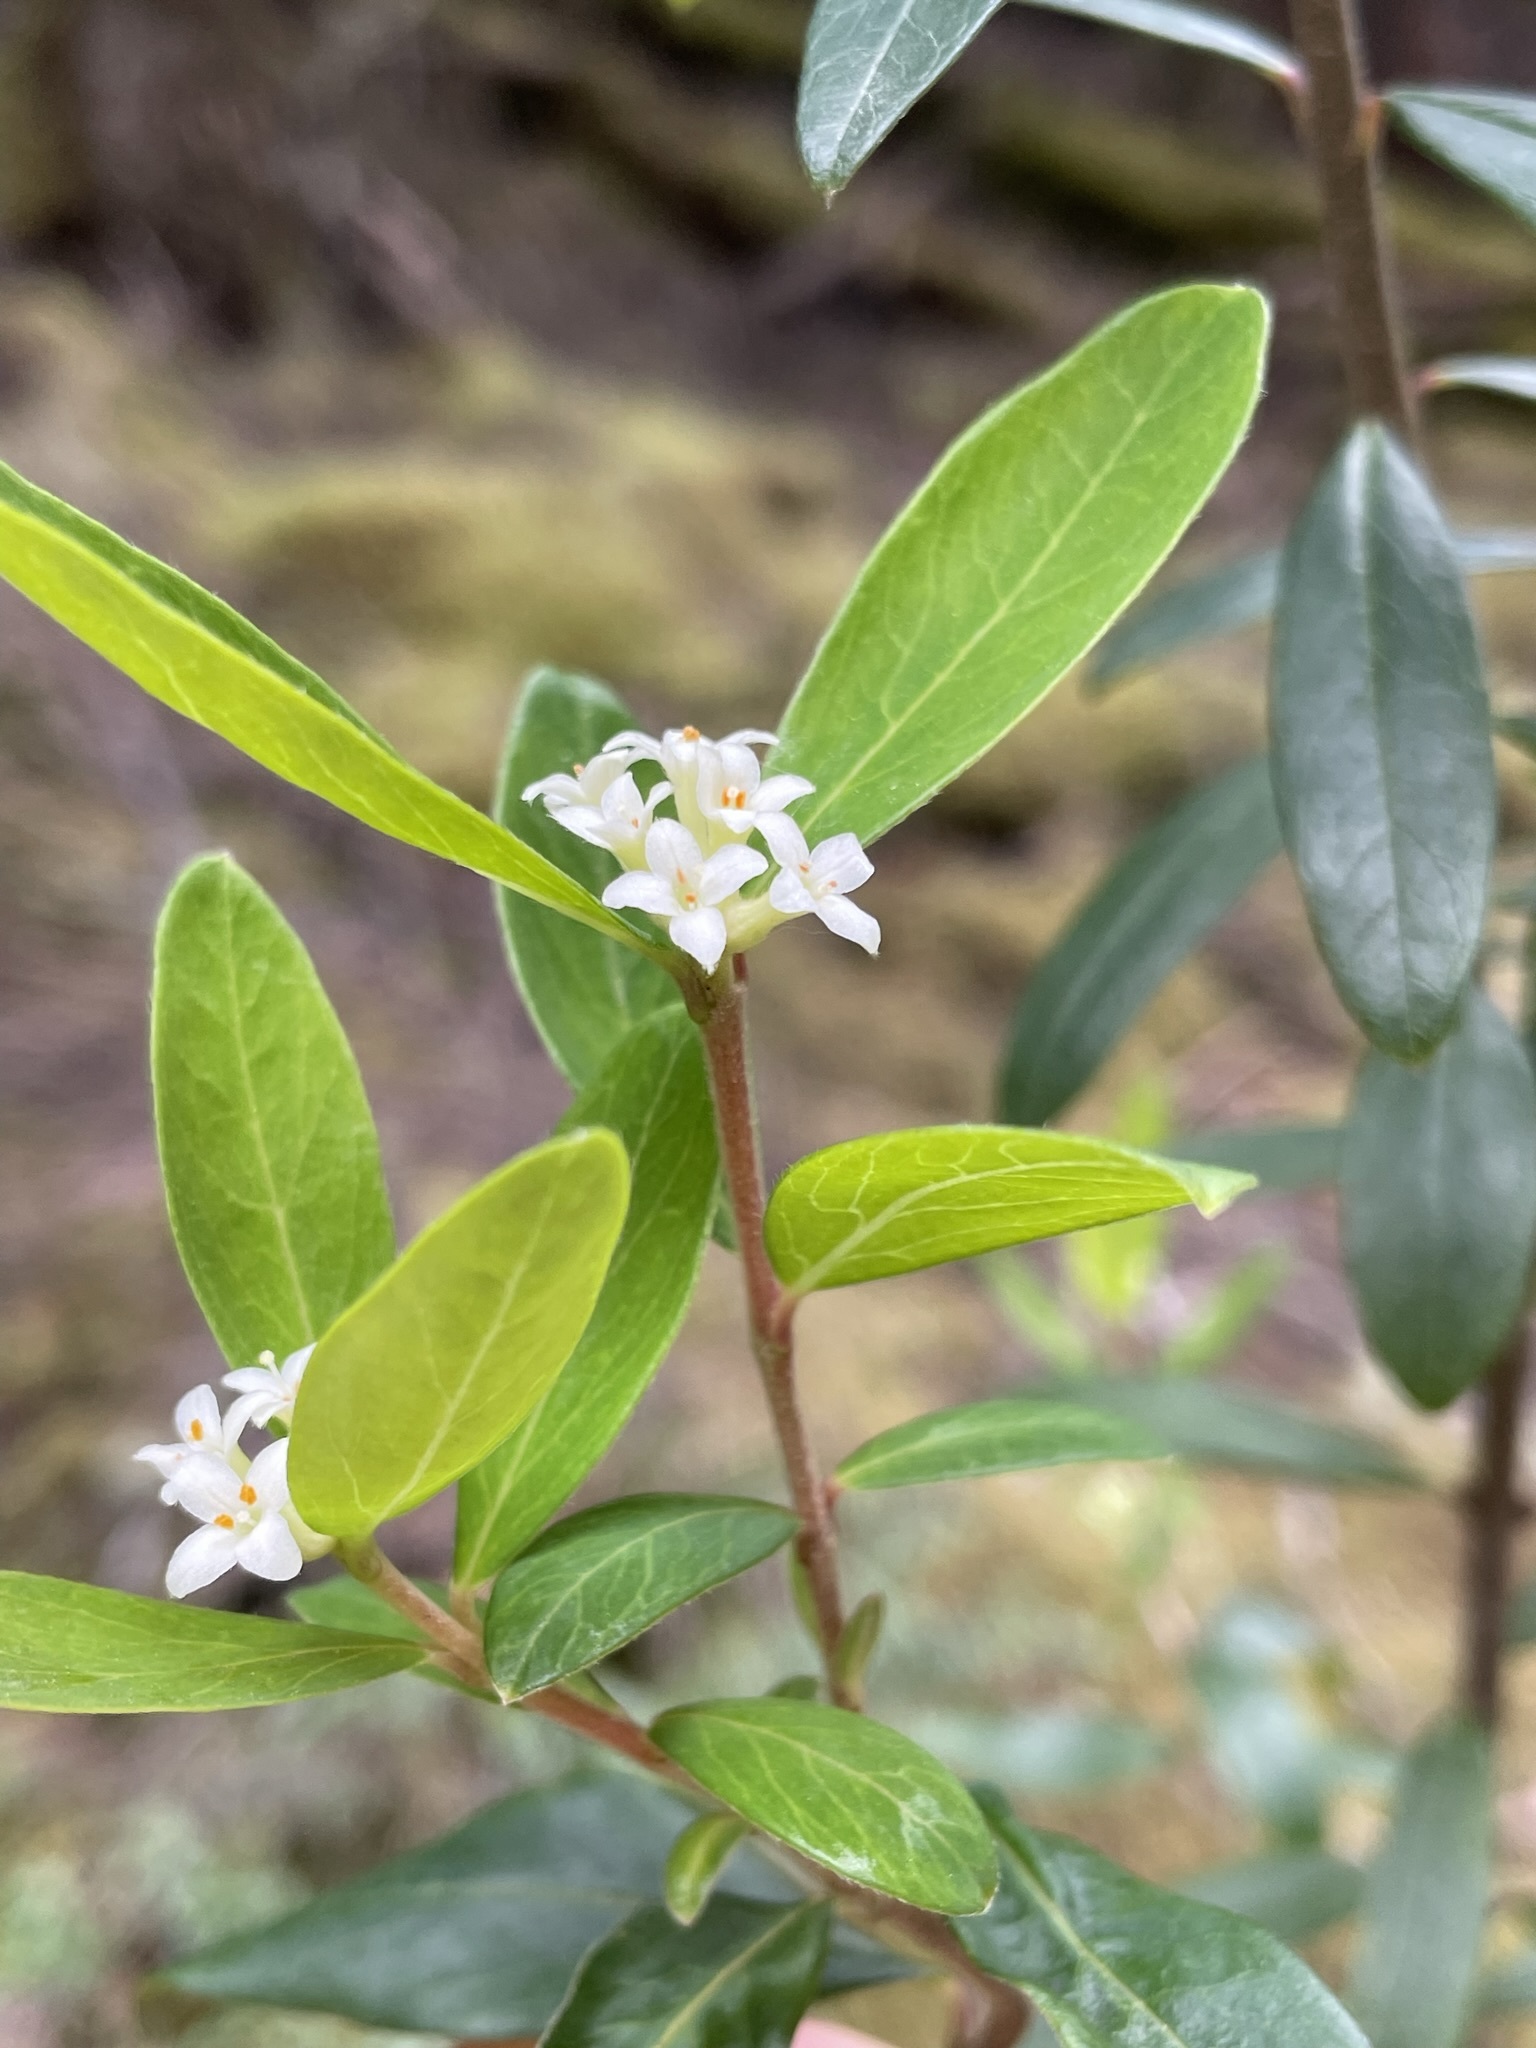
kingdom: Plantae
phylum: Tracheophyta
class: Magnoliopsida
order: Malvales
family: Thymelaeaceae
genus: Pimelea
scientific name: Pimelea drupacea
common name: Cherry riceflower
